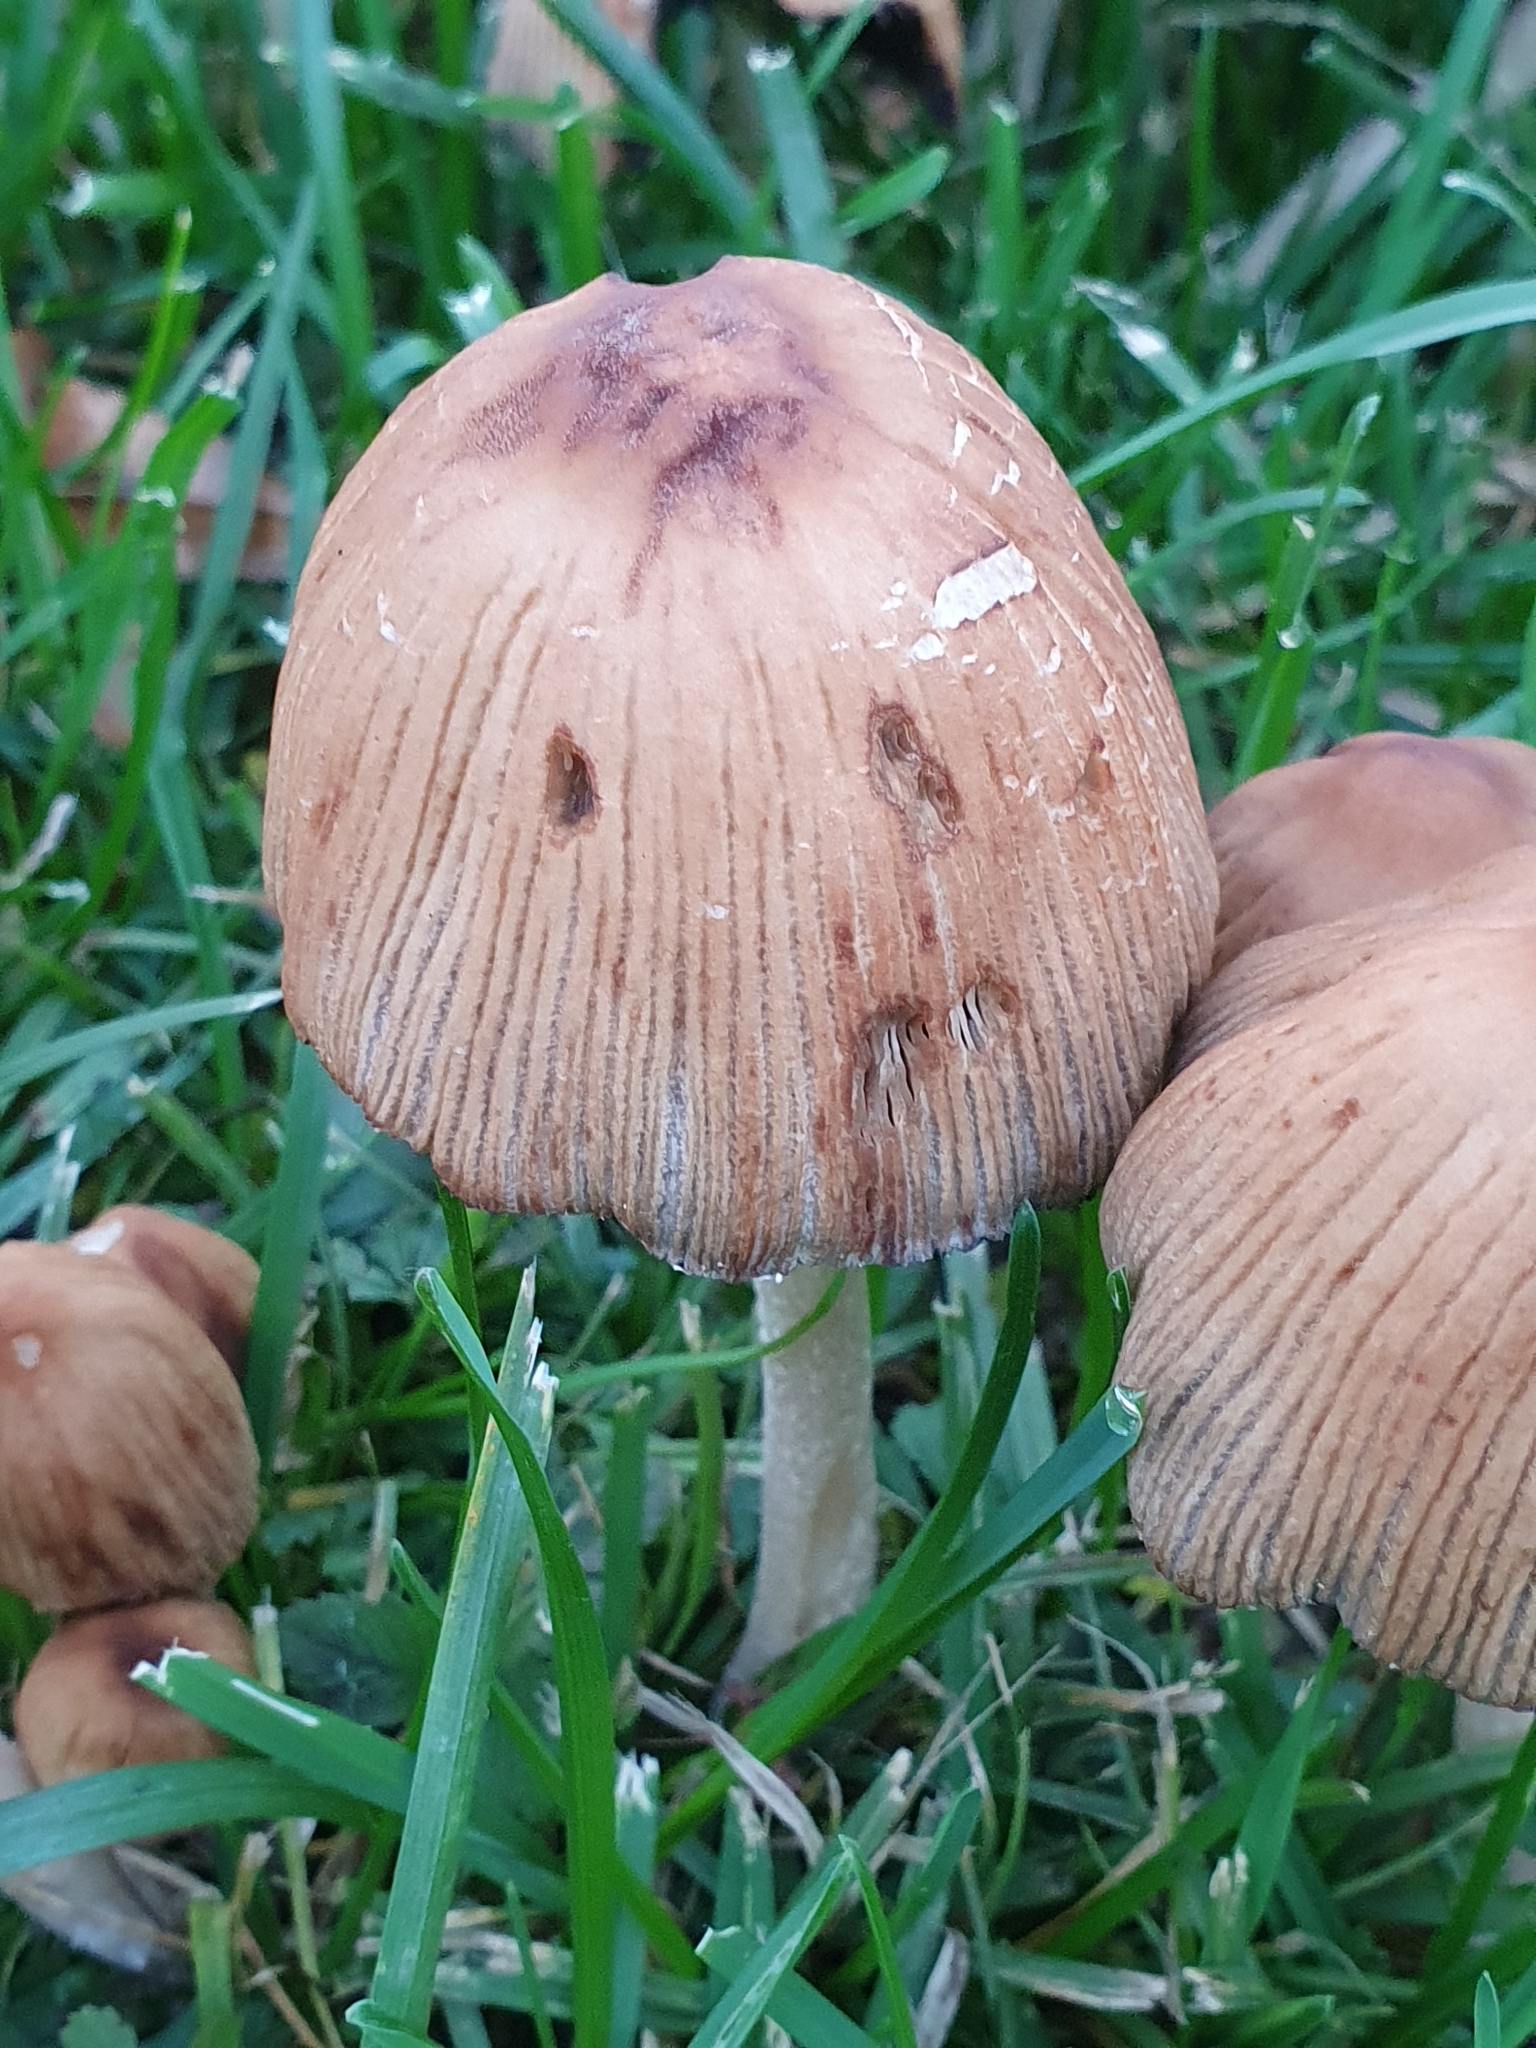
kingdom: Fungi
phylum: Basidiomycota
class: Agaricomycetes
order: Agaricales
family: Psathyrellaceae
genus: Coprinellus
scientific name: Coprinellus micaceus
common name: Glistening ink-cap
